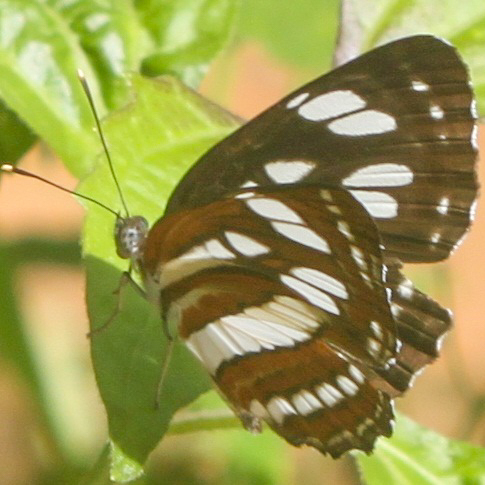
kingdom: Animalia
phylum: Arthropoda
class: Insecta
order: Lepidoptera
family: Nymphalidae
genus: Neptis
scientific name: Neptis hylas
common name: Common sailer
